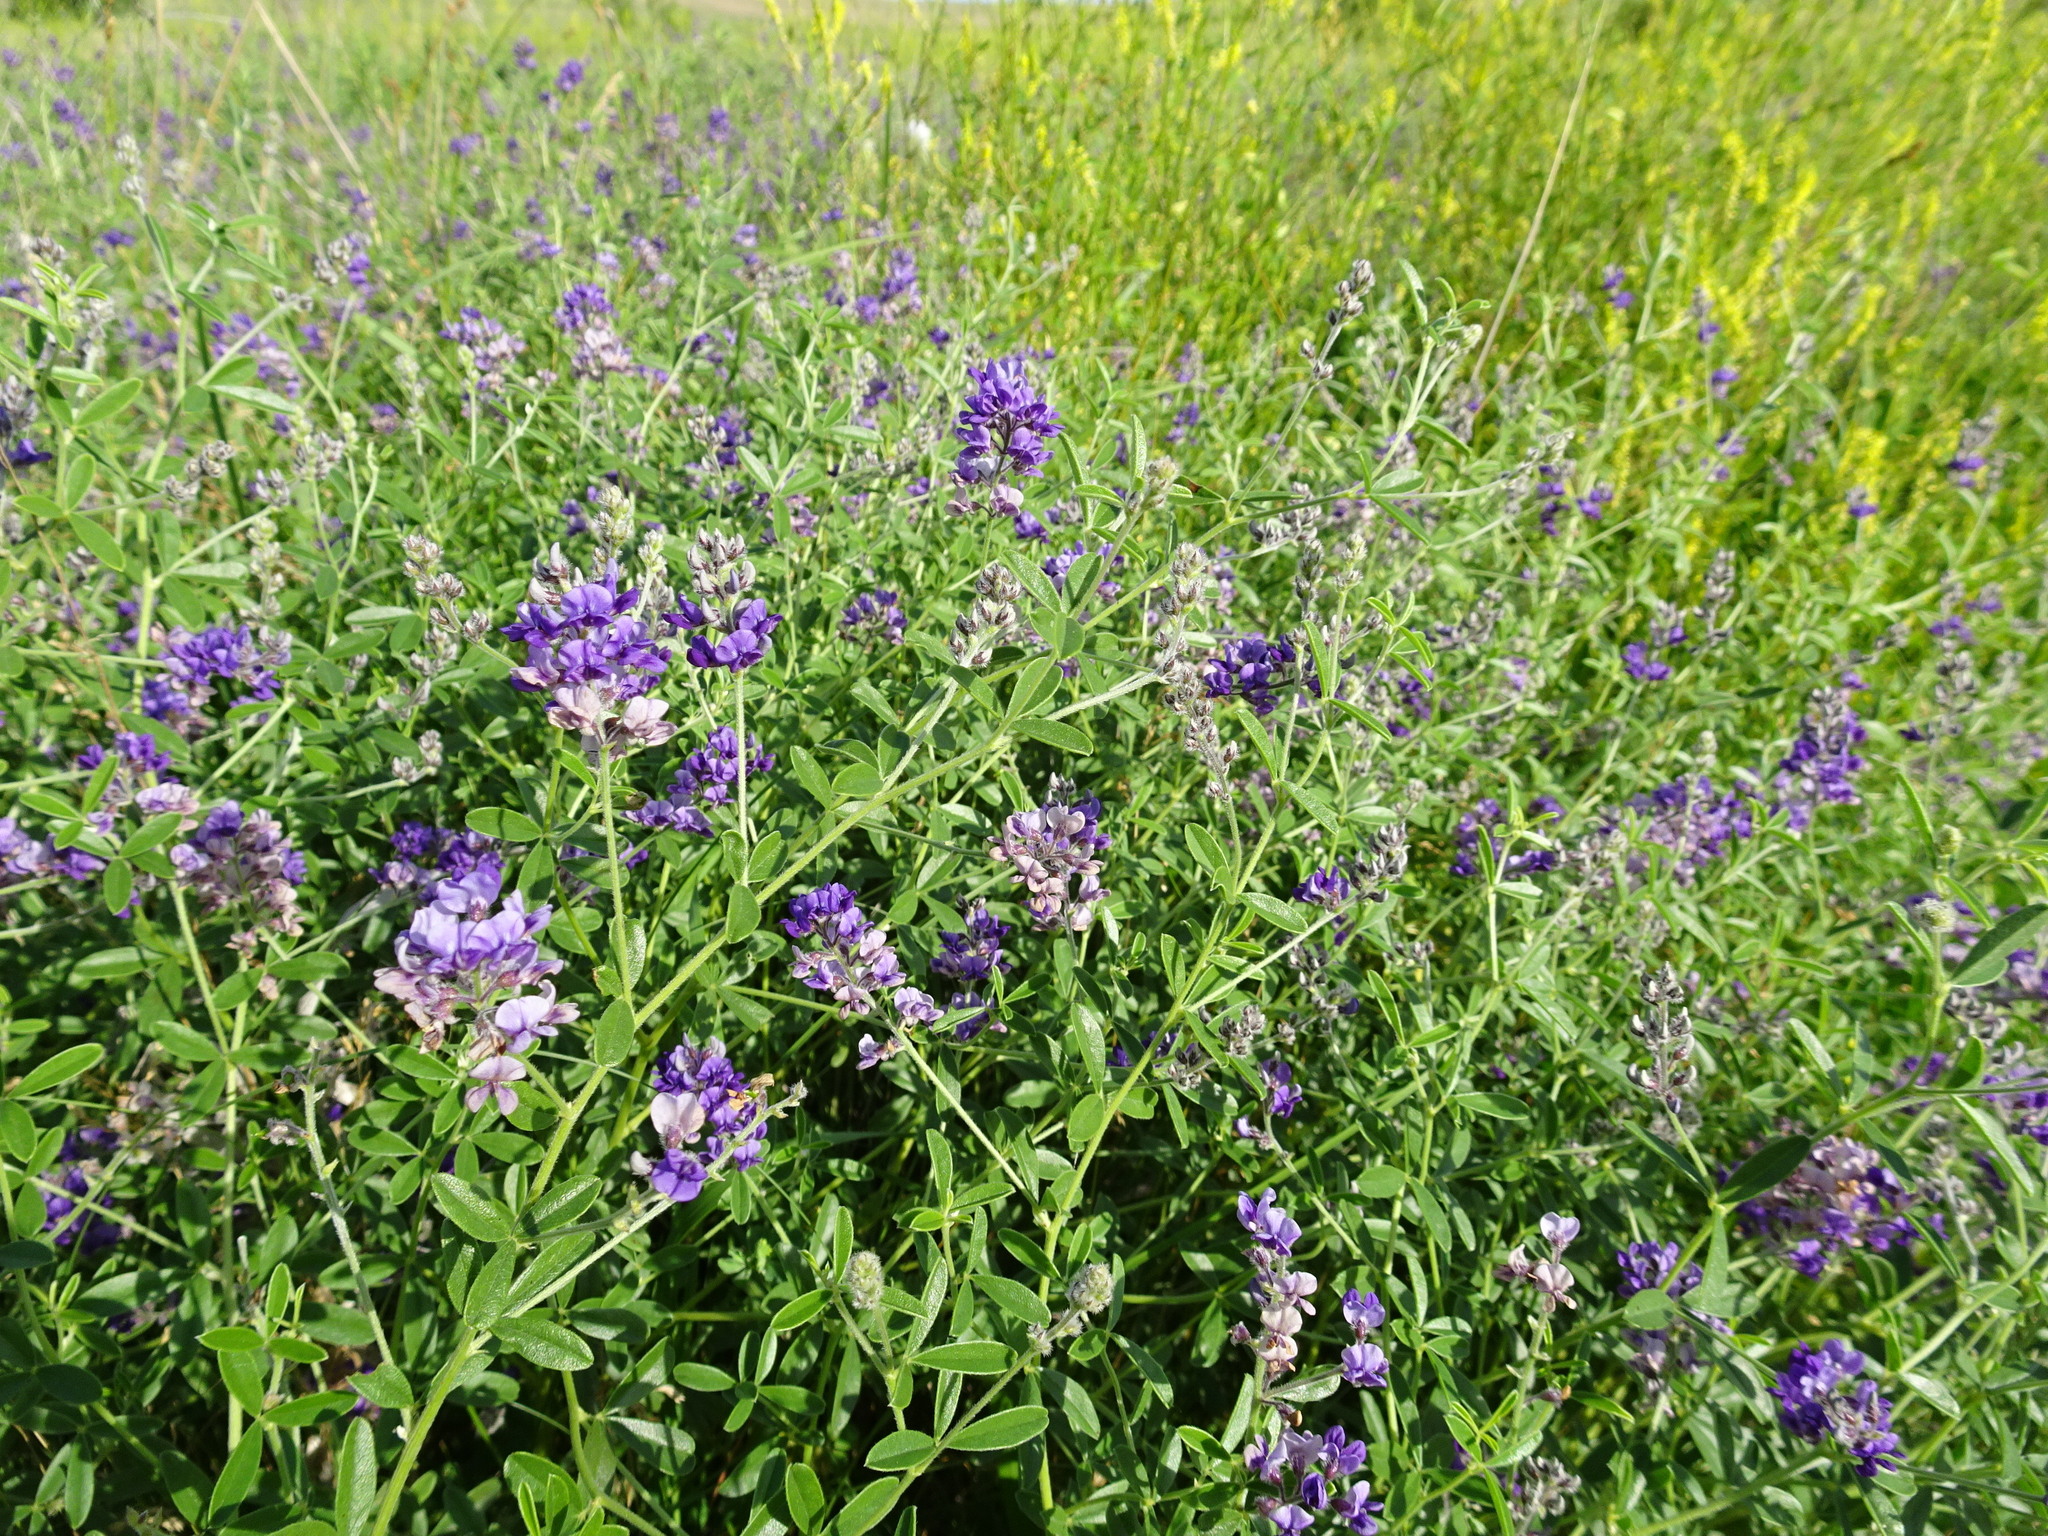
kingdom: Plantae
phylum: Tracheophyta
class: Magnoliopsida
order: Fabales
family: Fabaceae
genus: Pediomelum
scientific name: Pediomelum tenuiflorum
